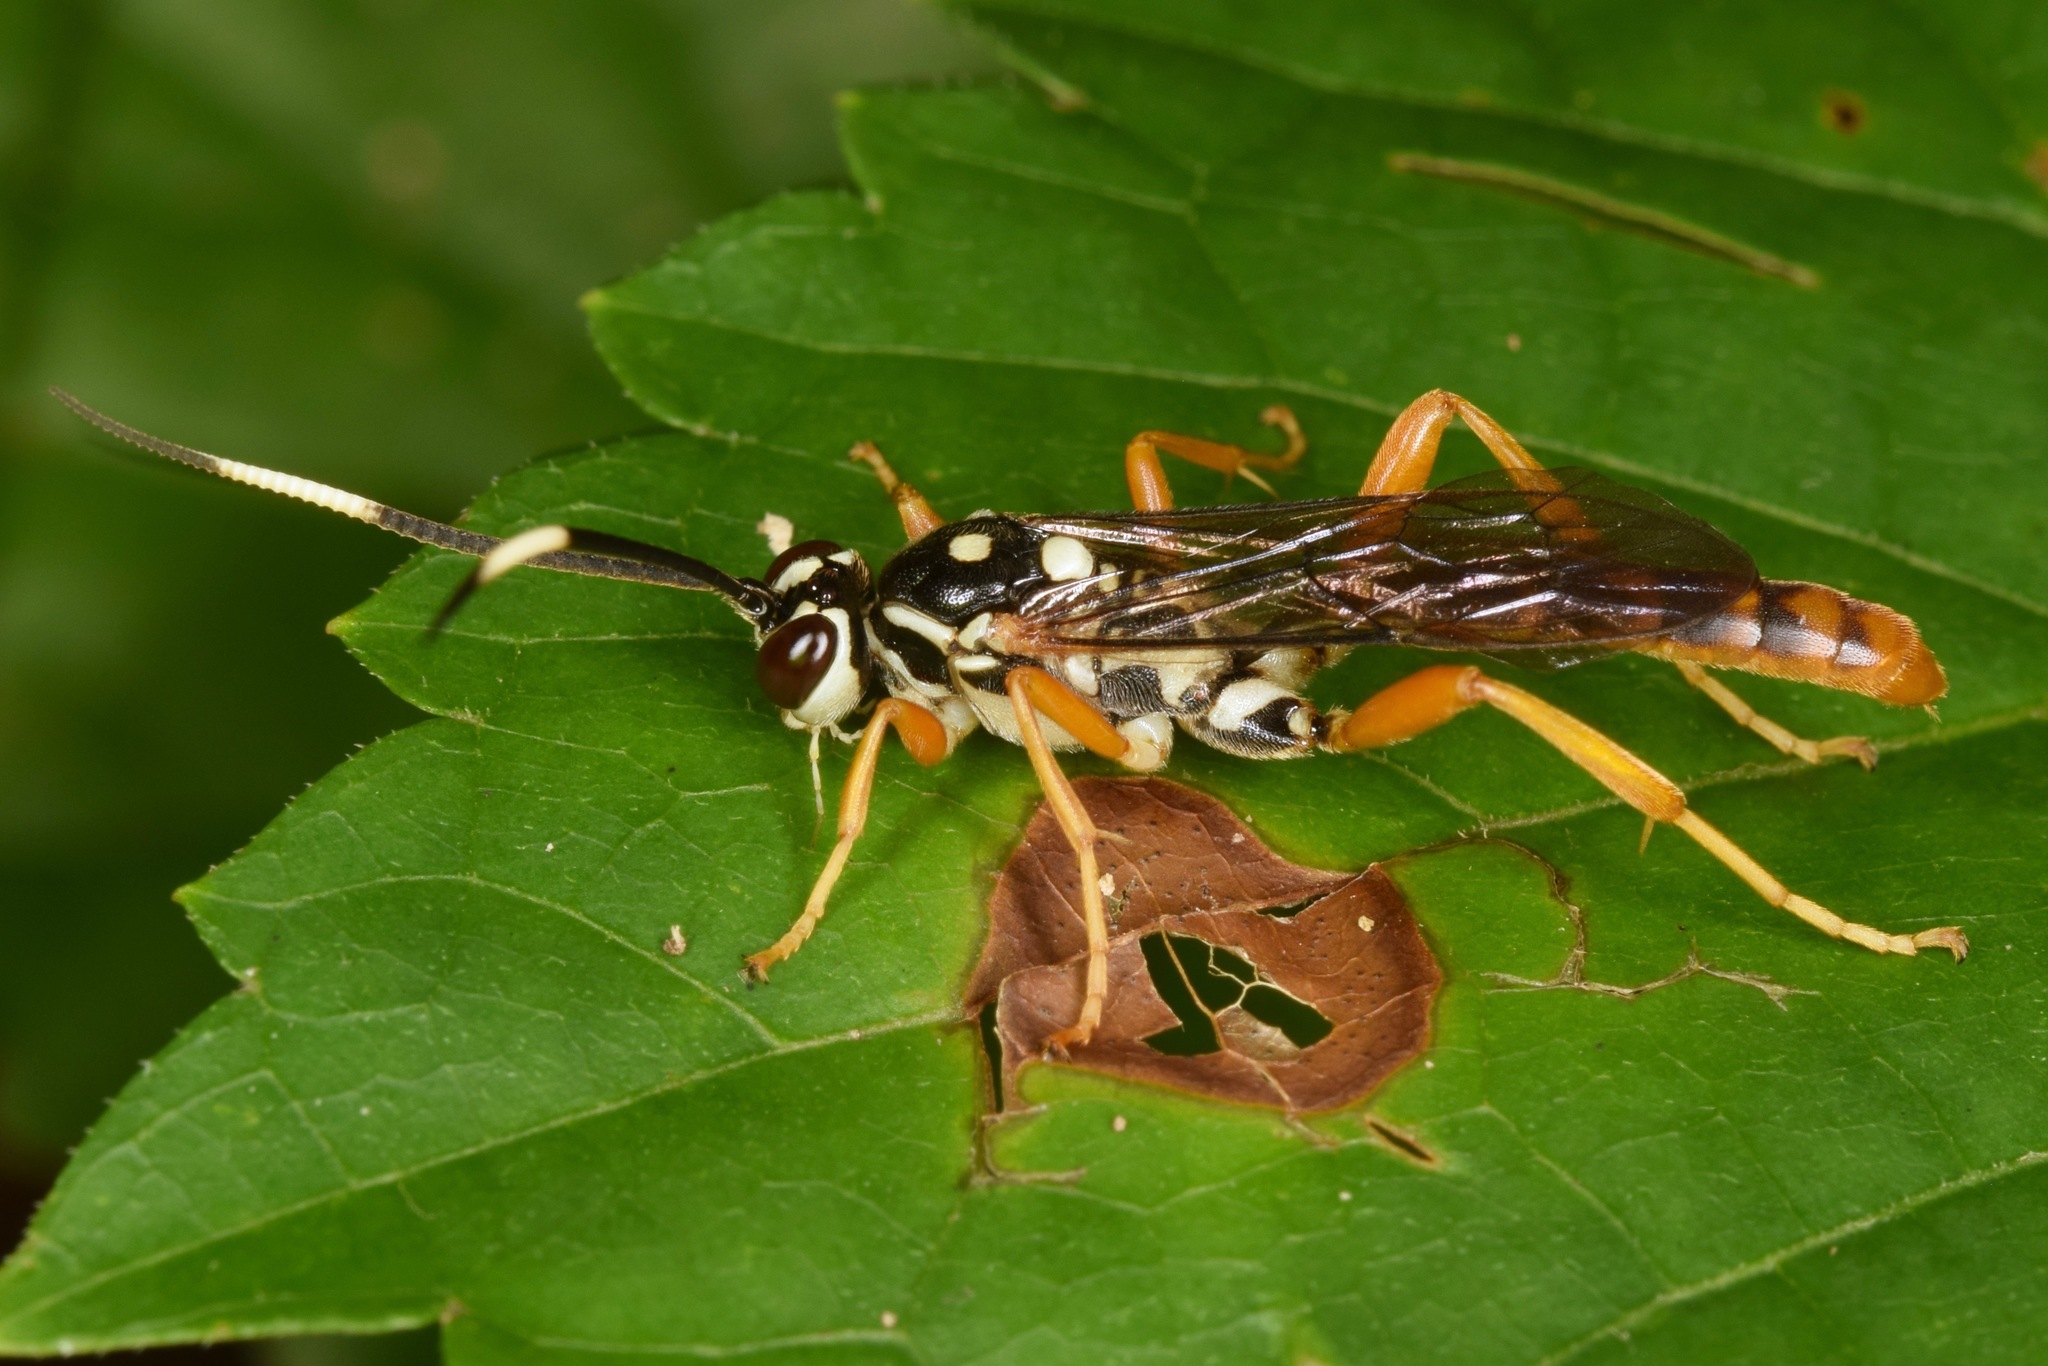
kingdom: Animalia
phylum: Arthropoda
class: Insecta
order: Hymenoptera
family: Ichneumonidae
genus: Cratichneumon
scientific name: Cratichneumon w-album
